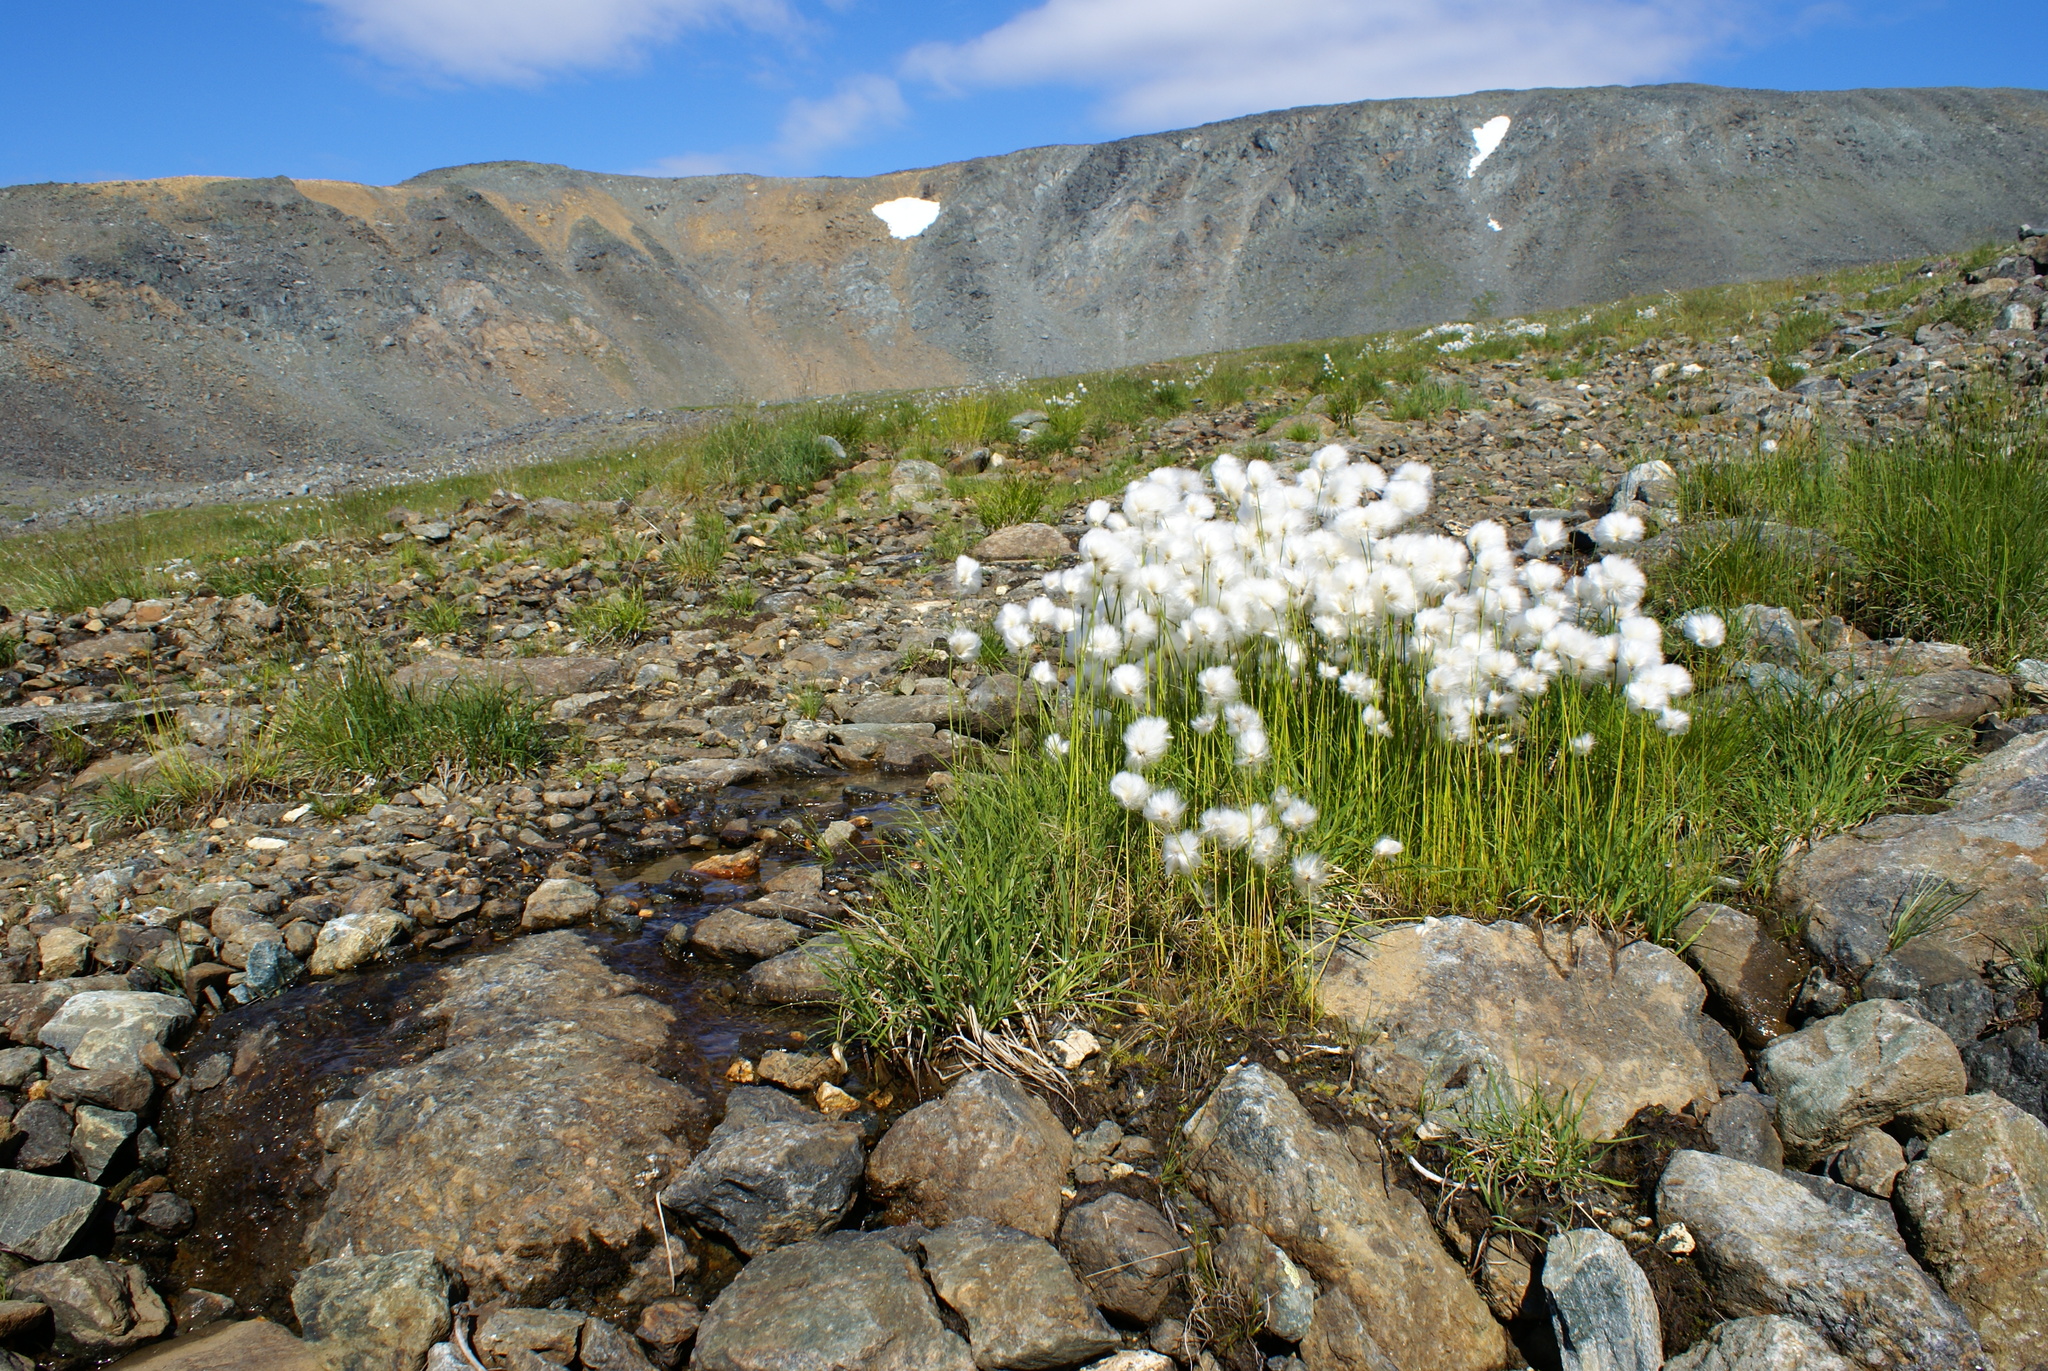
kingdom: Plantae
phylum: Tracheophyta
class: Liliopsida
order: Poales
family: Cyperaceae
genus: Eriophorum
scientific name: Eriophorum scheuchzeri
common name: Scheuchzer's cottongrass
